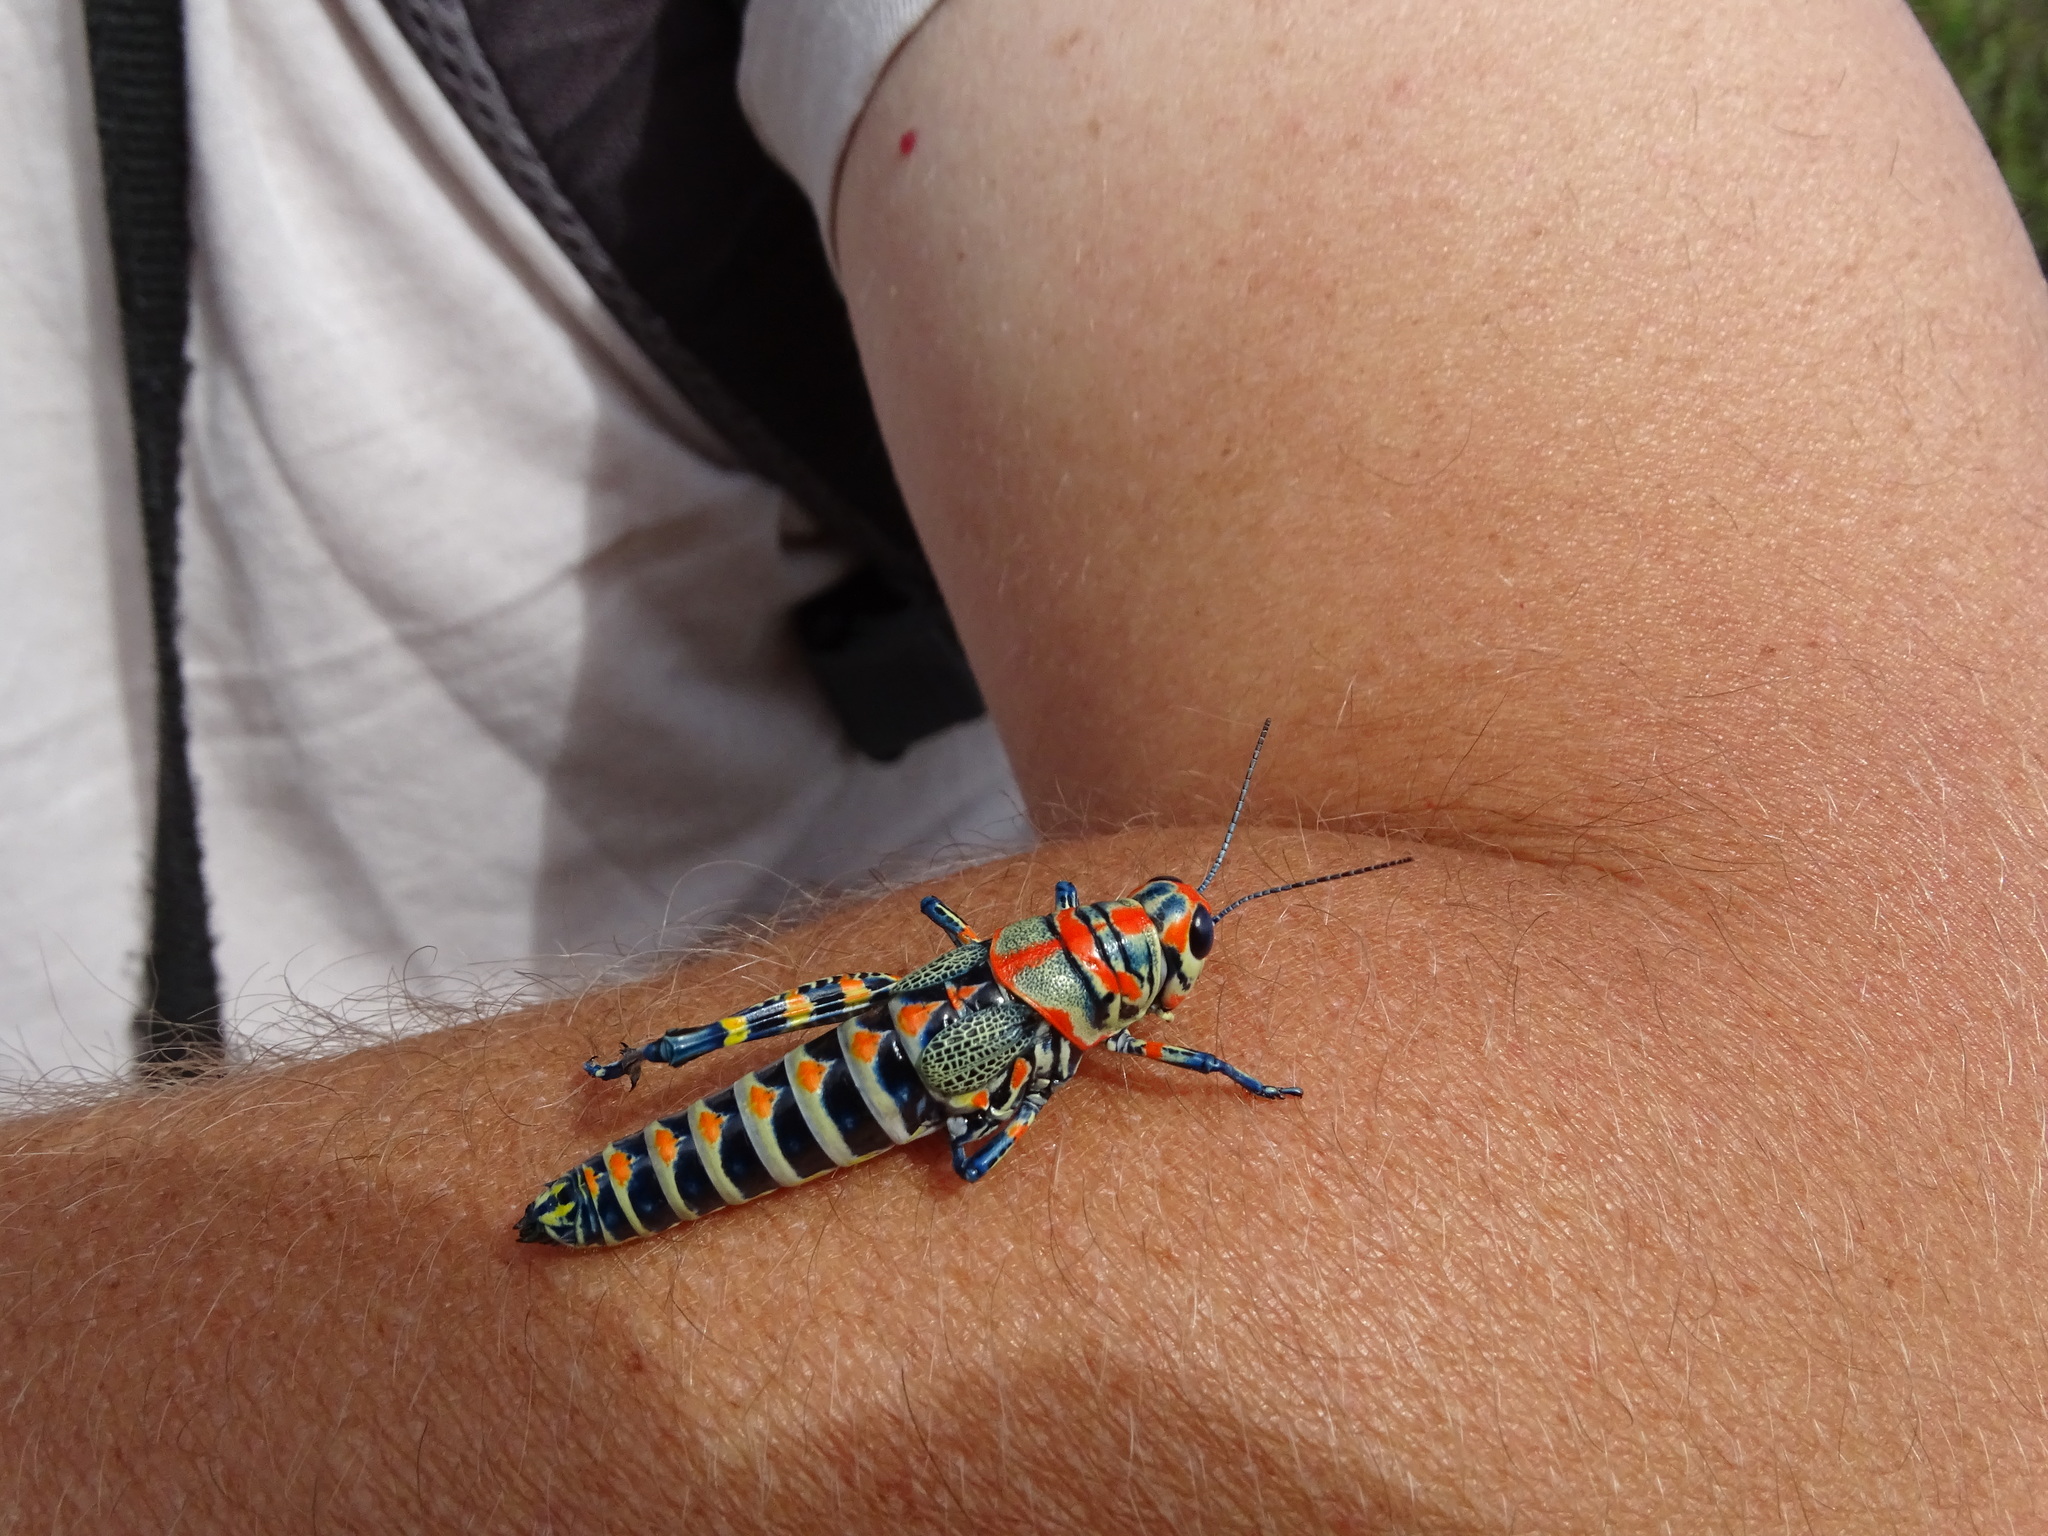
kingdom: Animalia
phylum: Arthropoda
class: Insecta
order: Orthoptera
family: Acrididae
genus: Dactylotum
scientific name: Dactylotum bicolor
